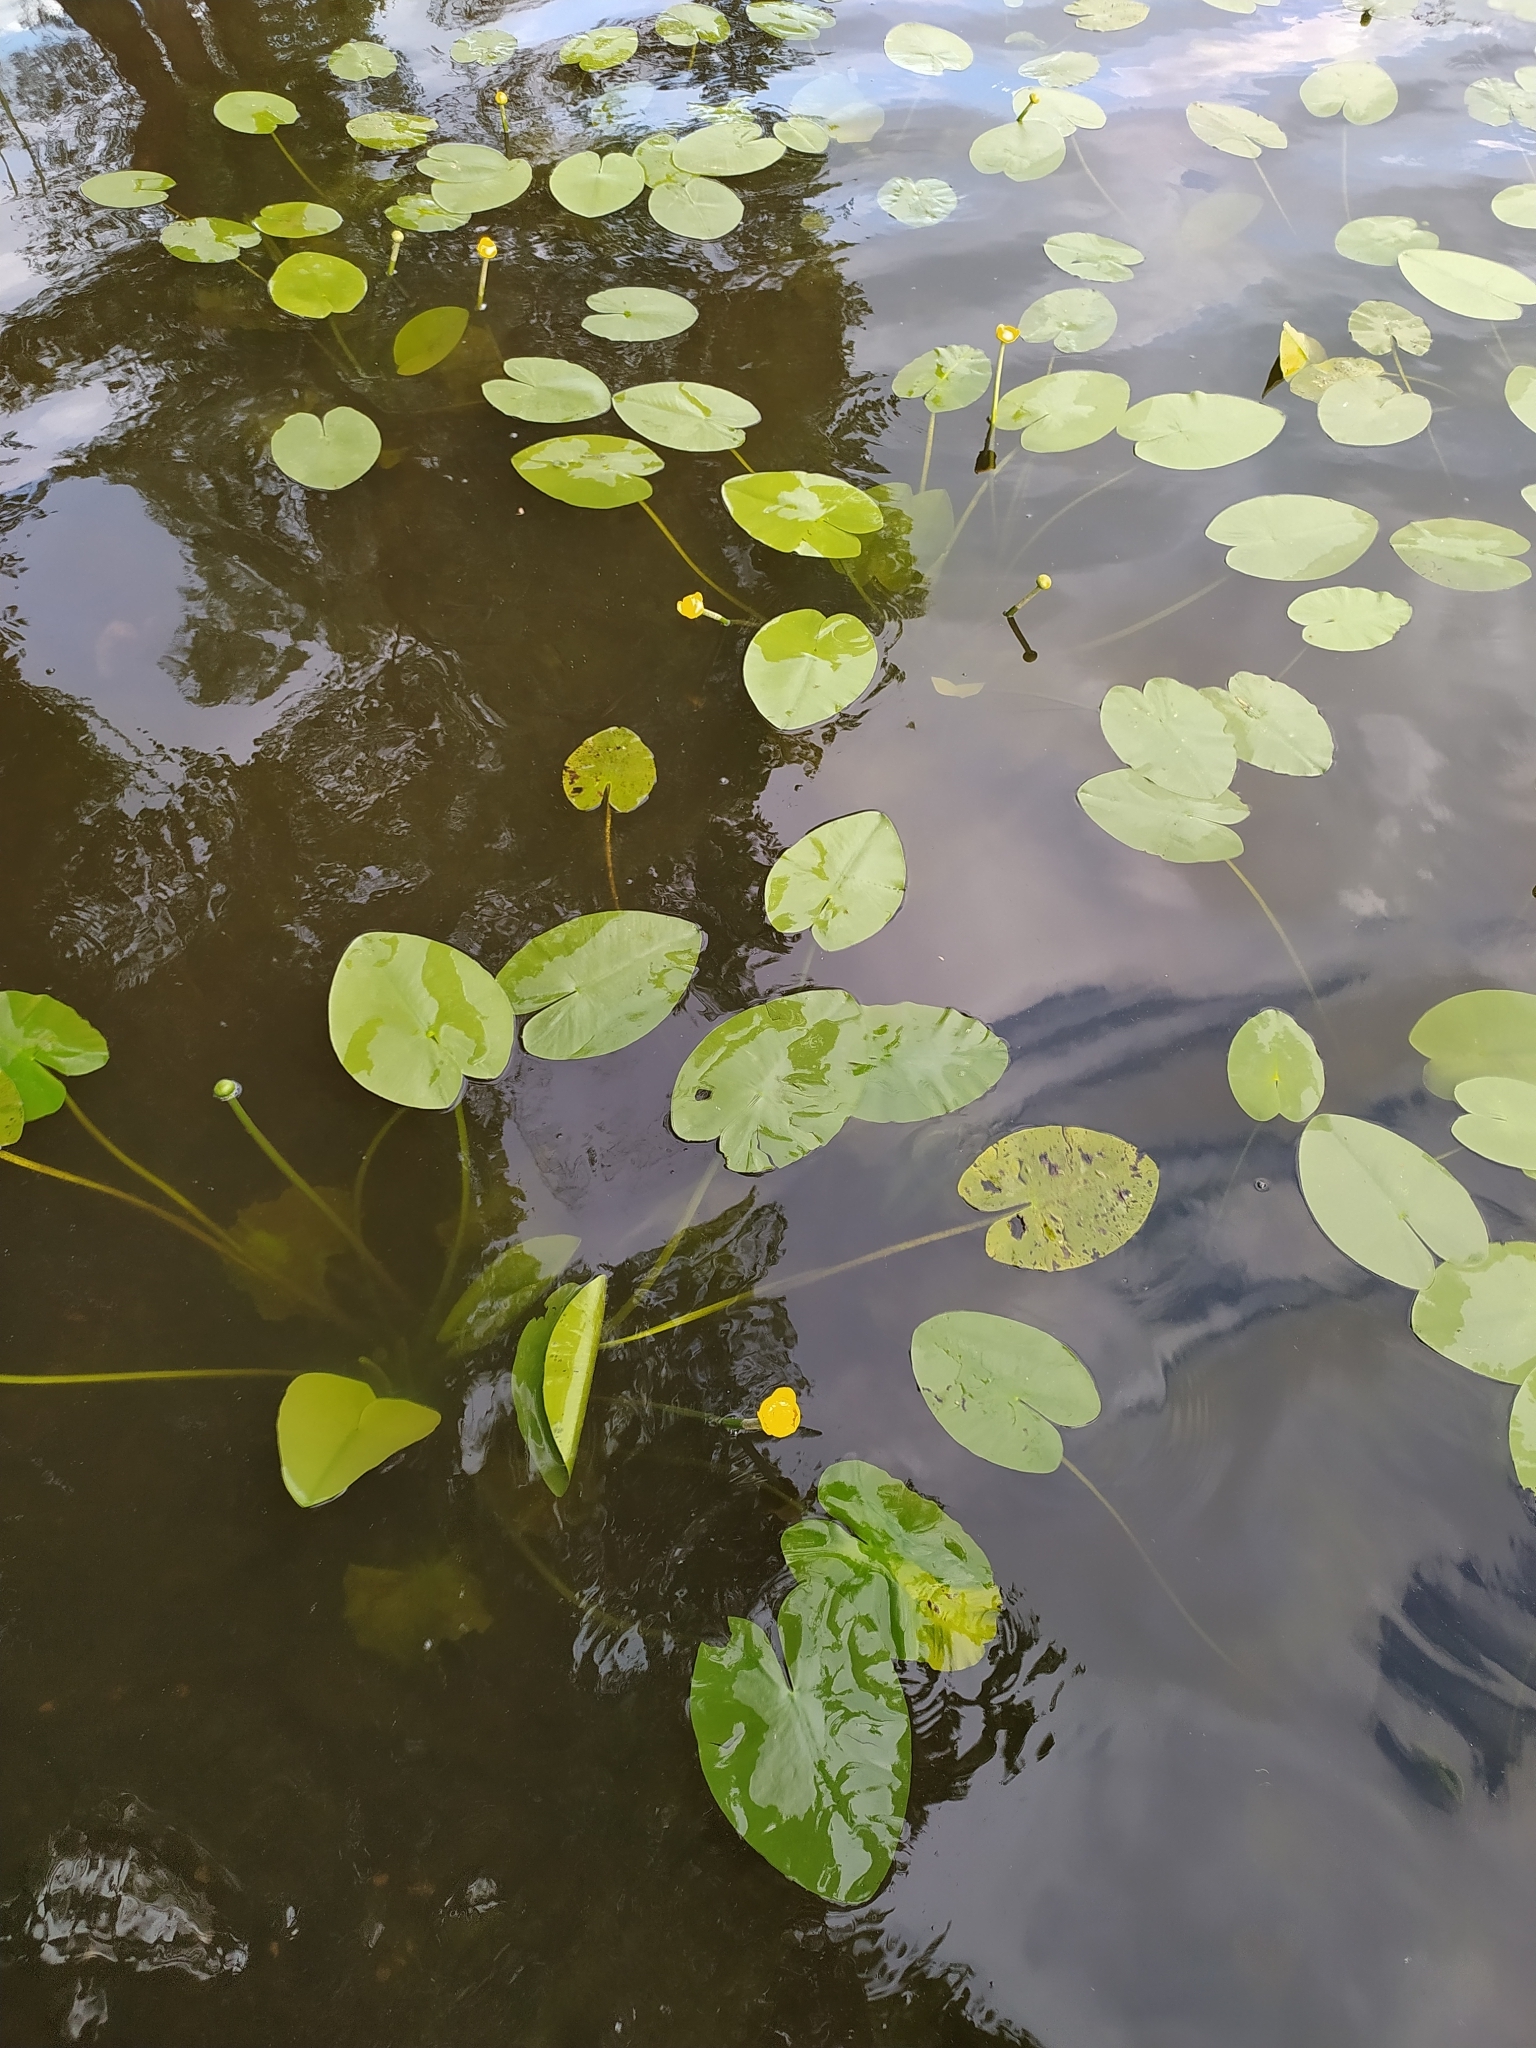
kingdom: Plantae
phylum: Tracheophyta
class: Magnoliopsida
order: Nymphaeales
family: Nymphaeaceae
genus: Nuphar
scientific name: Nuphar lutea
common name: Yellow water-lily
